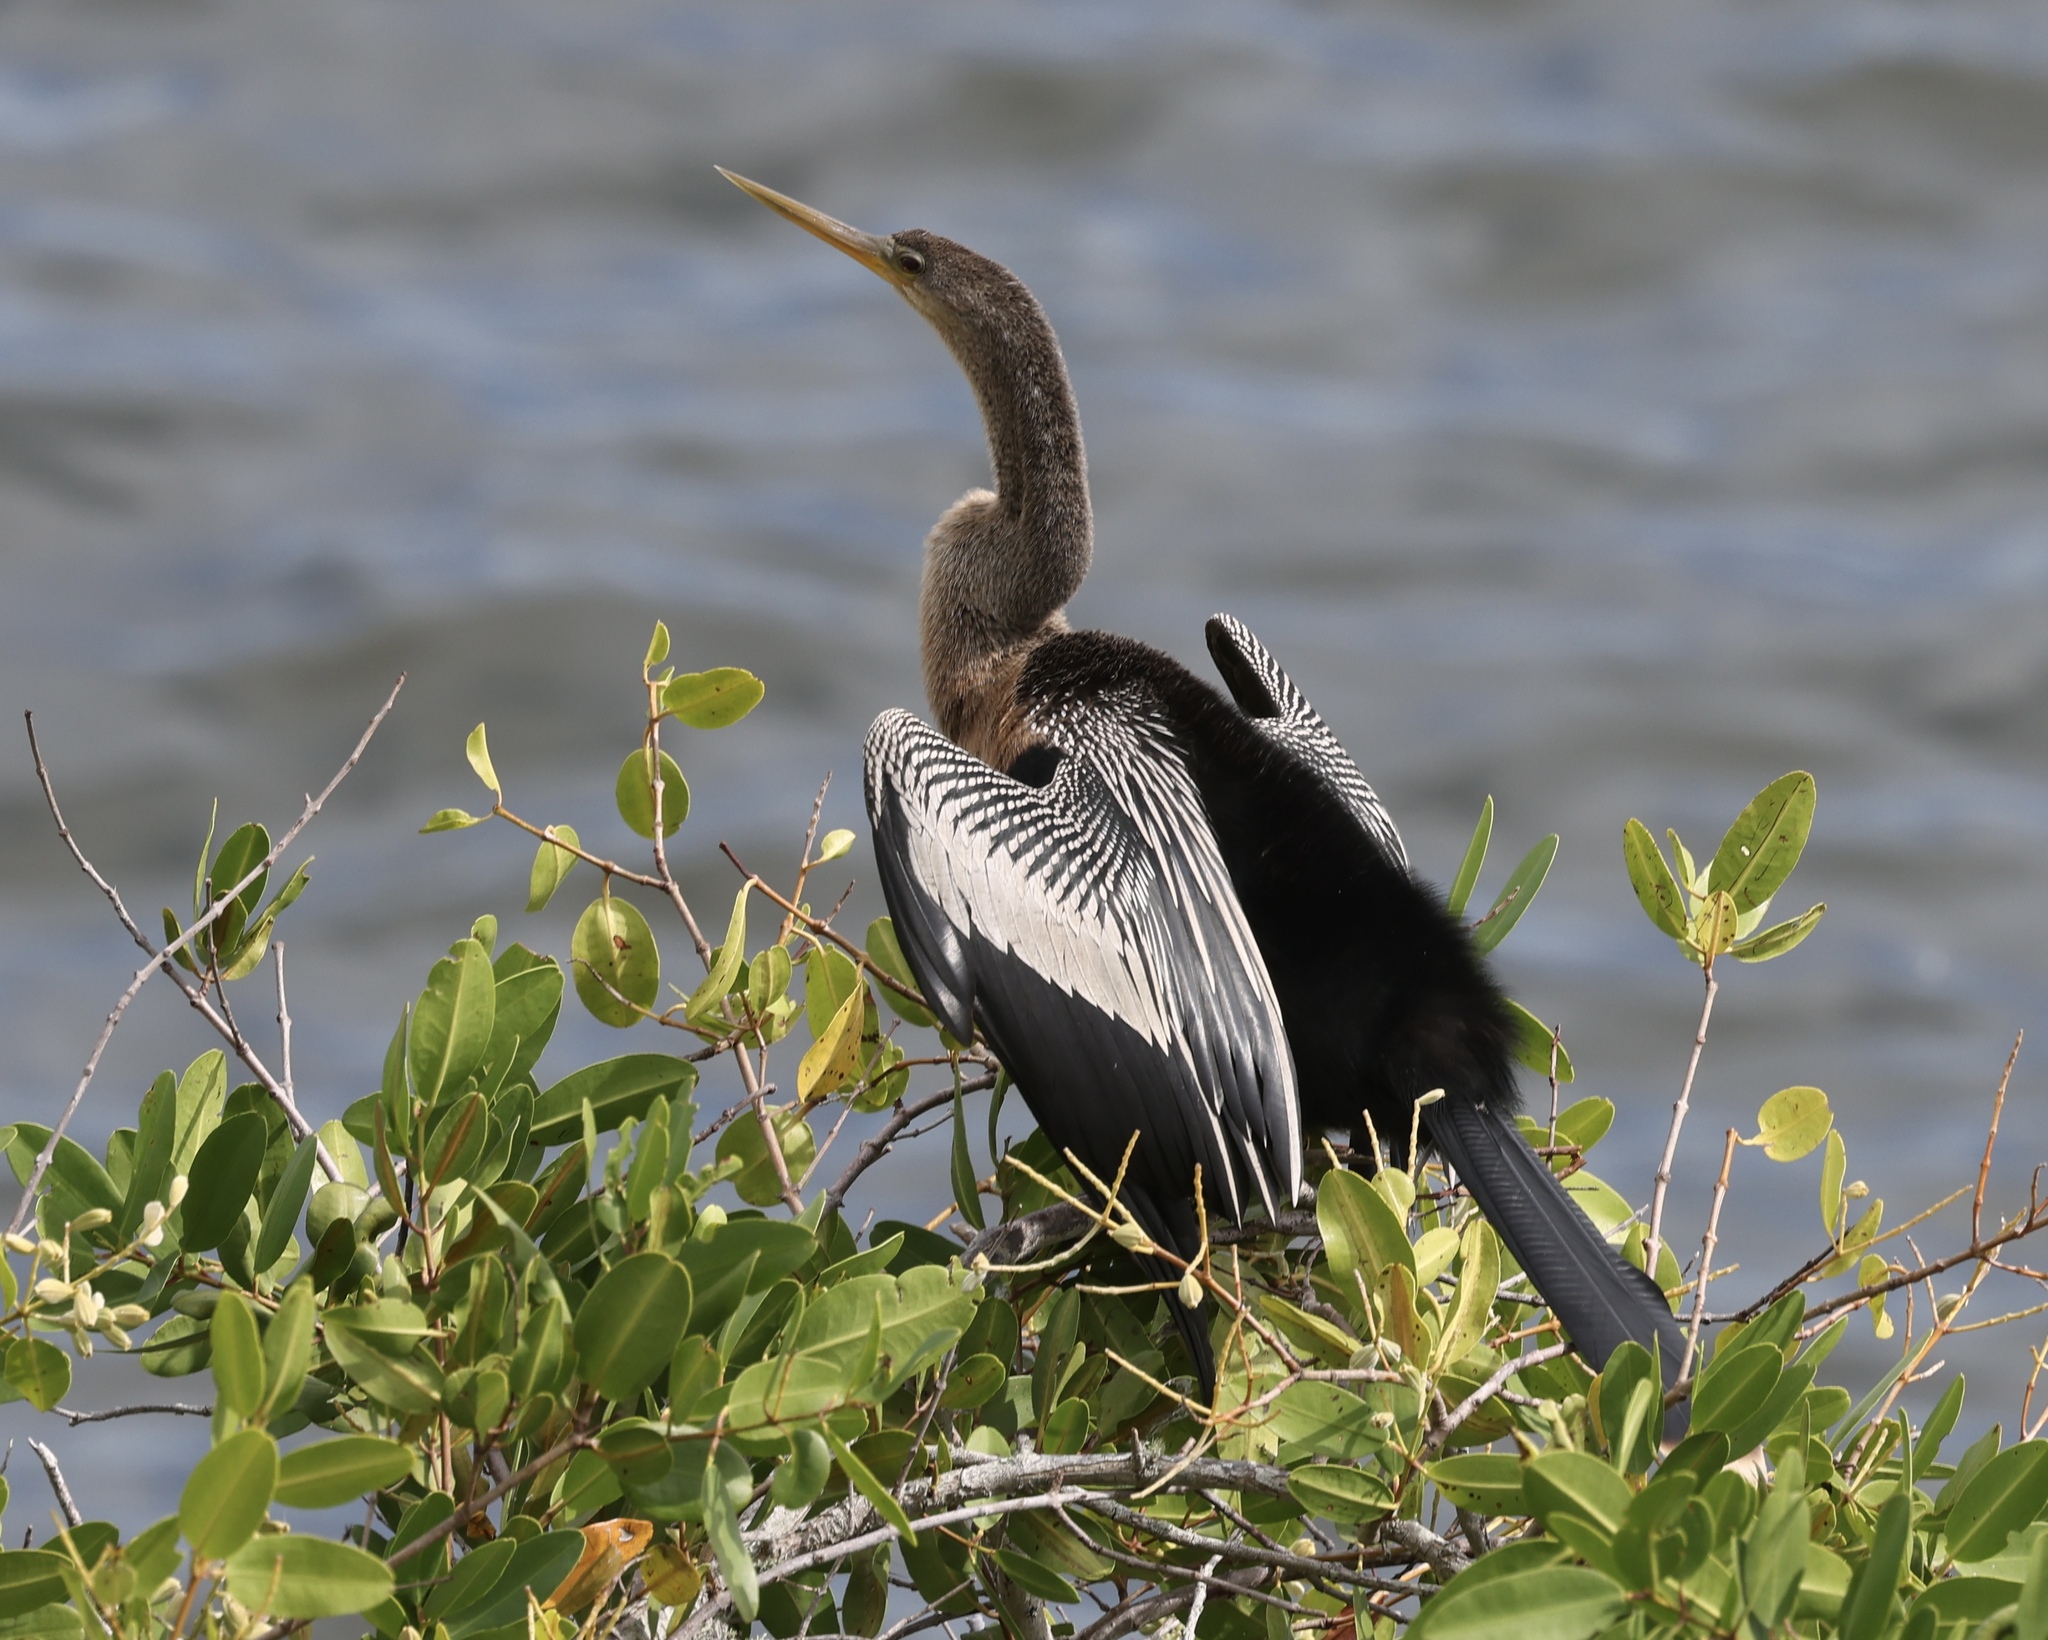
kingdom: Animalia
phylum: Chordata
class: Aves
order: Suliformes
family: Anhingidae
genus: Anhinga
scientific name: Anhinga anhinga
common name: Anhinga
